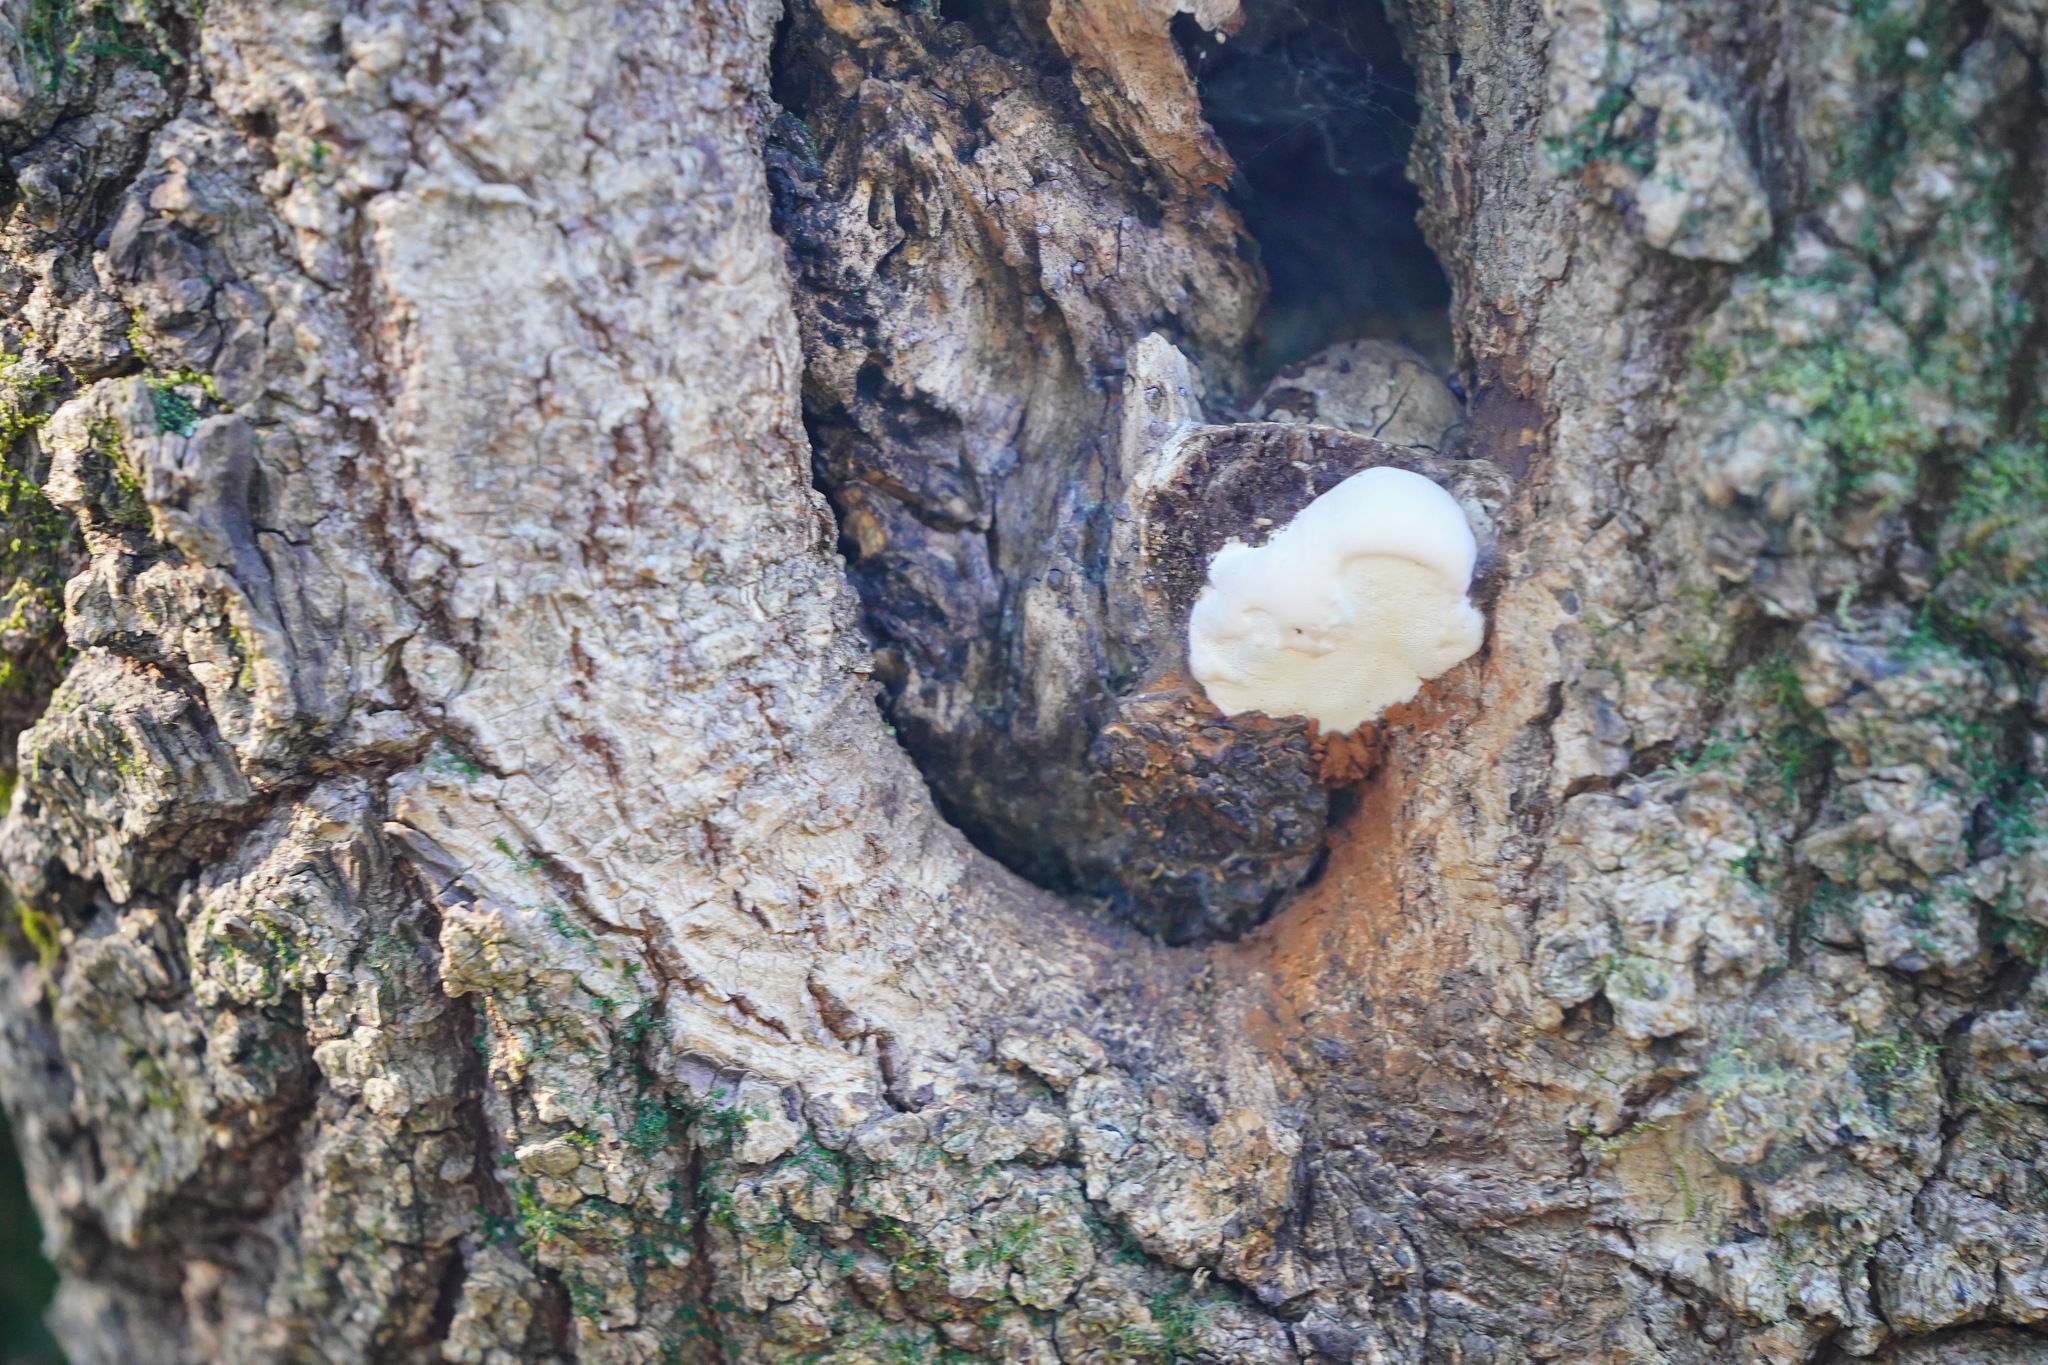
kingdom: Fungi
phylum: Basidiomycota
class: Agaricomycetes
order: Polyporales
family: Polyporaceae
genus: Ganoderma
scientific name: Ganoderma brownii
